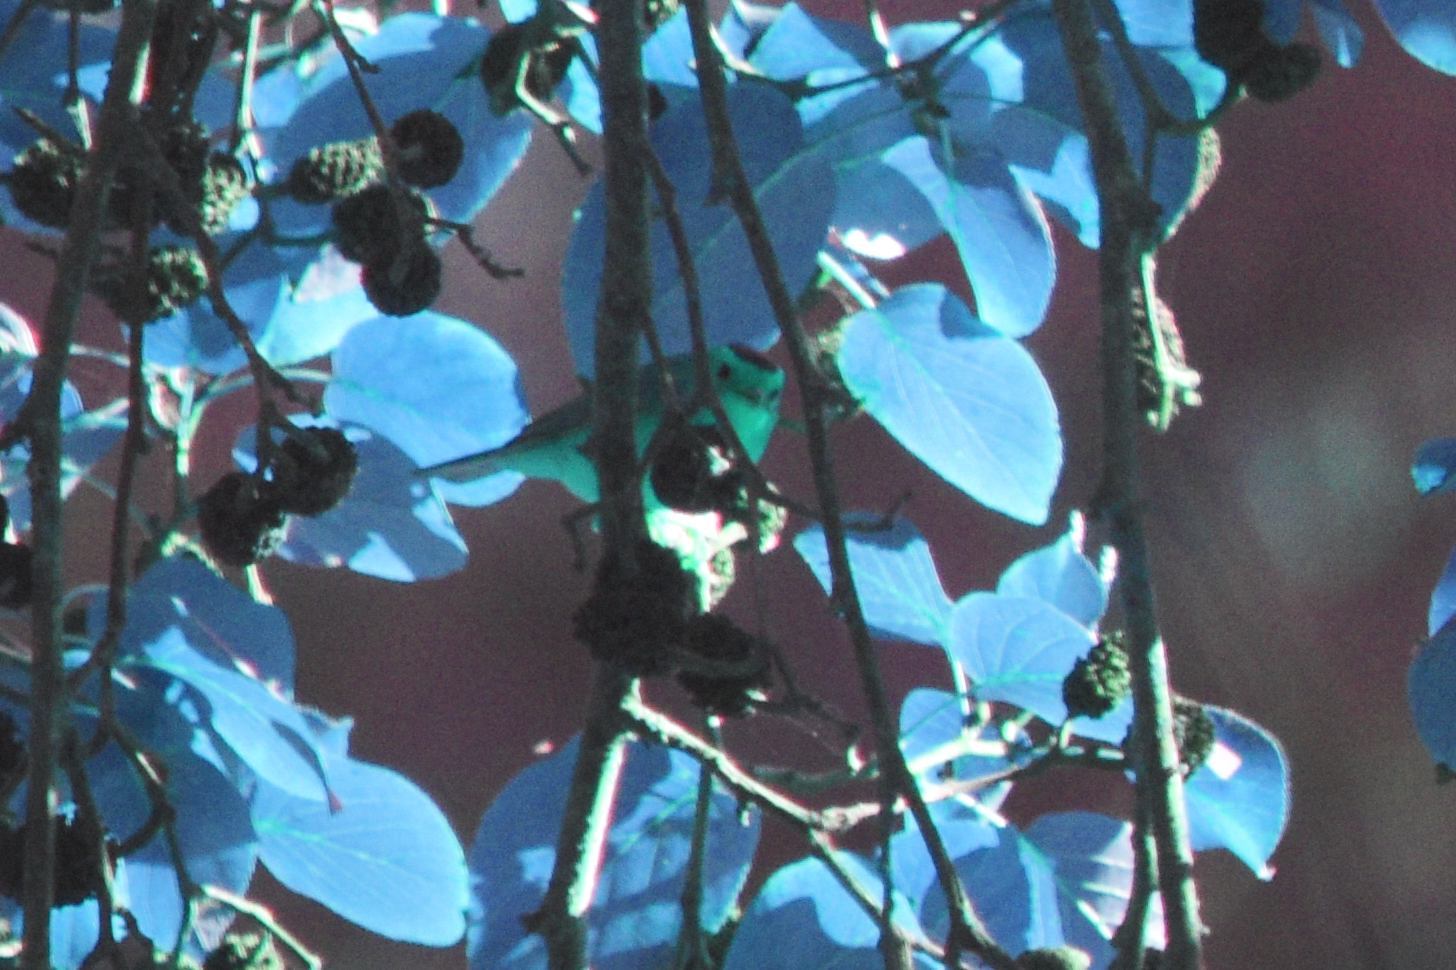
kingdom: Animalia
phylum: Chordata
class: Aves
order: Passeriformes
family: Parulidae
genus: Cardellina
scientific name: Cardellina pusilla
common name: Wilson's warbler
